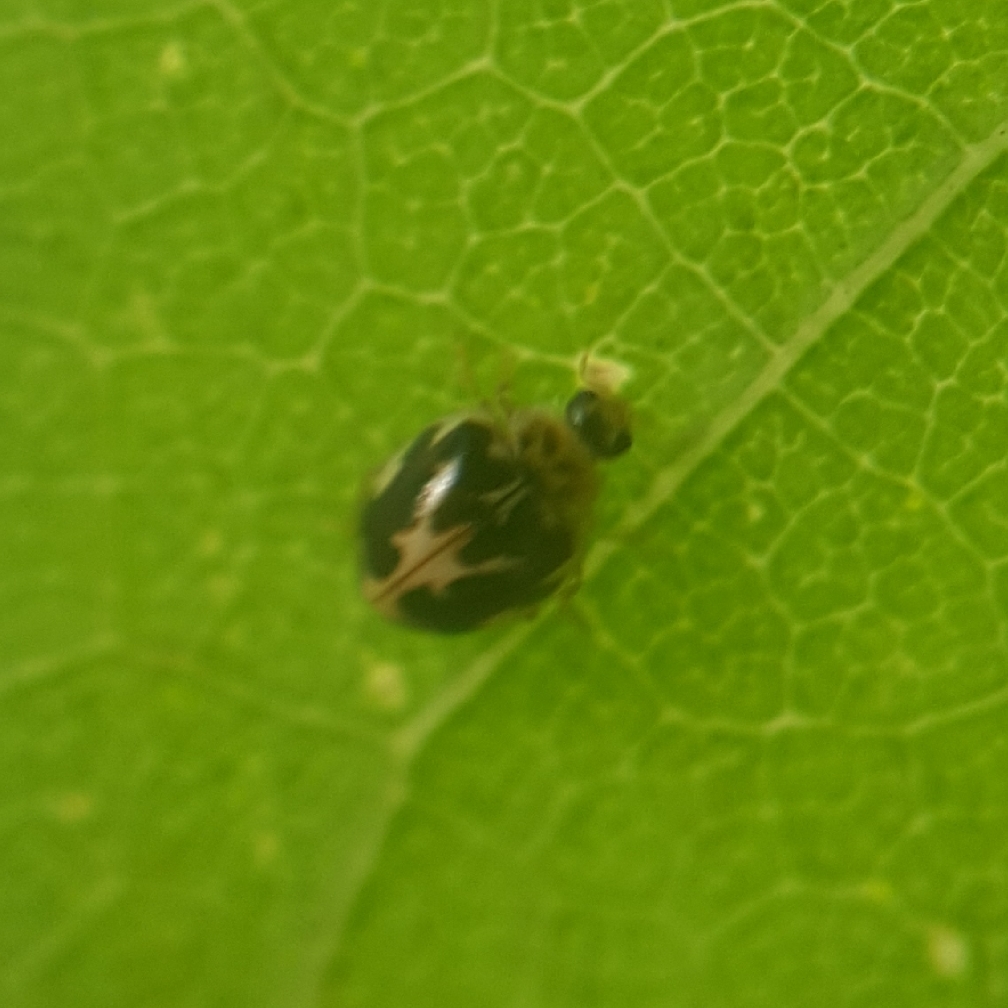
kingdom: Animalia
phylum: Arthropoda
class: Insecta
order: Coleoptera
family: Coccinellidae
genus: Psyllobora
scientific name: Psyllobora vigintimaculata
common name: Ladybird beetle
